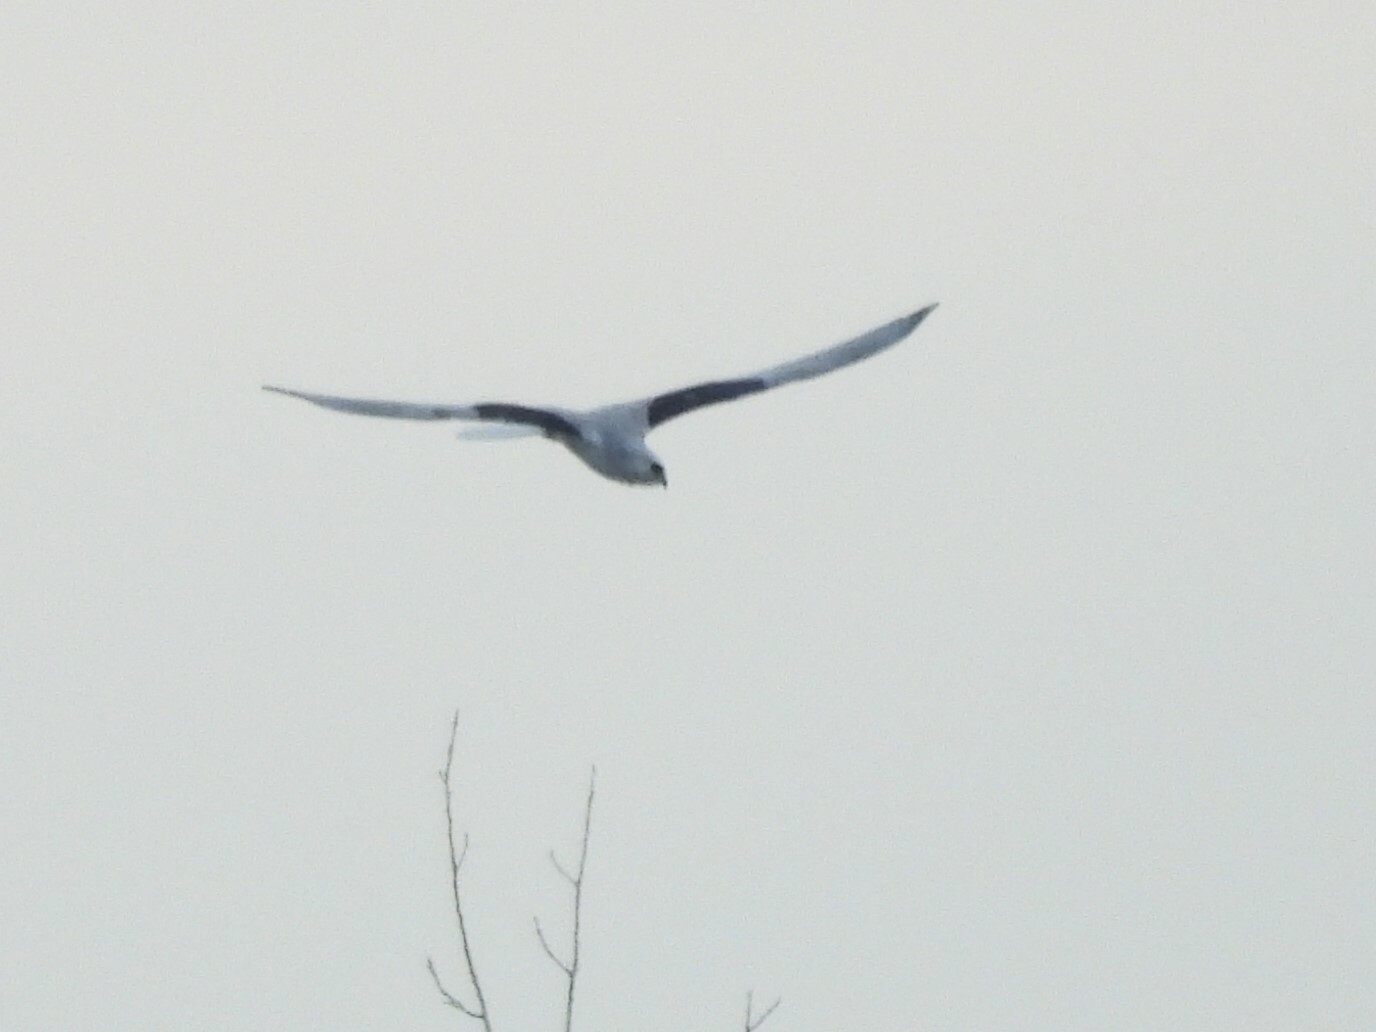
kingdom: Animalia
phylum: Chordata
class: Aves
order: Accipitriformes
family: Accipitridae
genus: Elanus
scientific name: Elanus leucurus
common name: White-tailed kite
